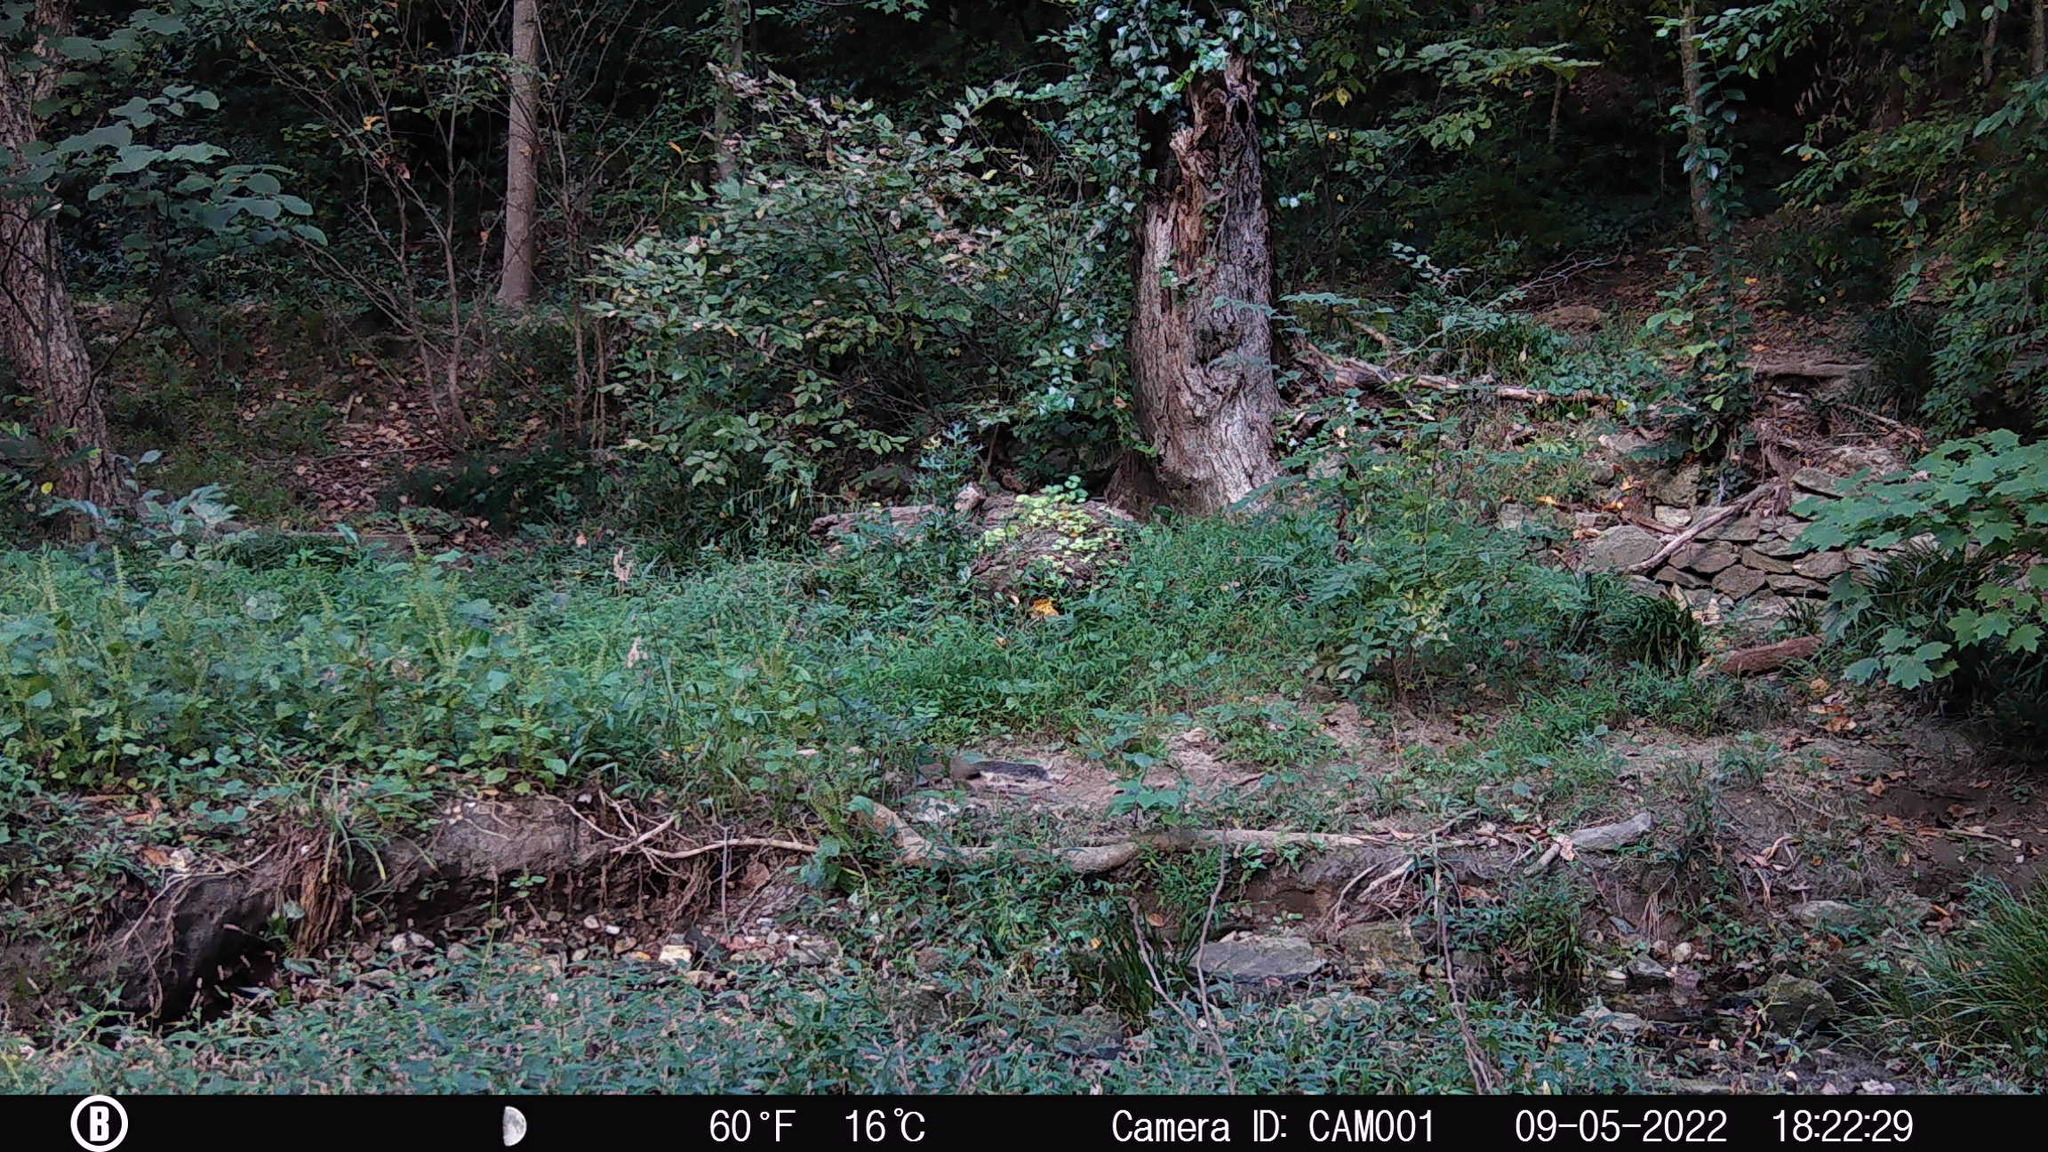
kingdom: Animalia
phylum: Chordata
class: Mammalia
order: Rodentia
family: Sciuridae
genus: Sciurus
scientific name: Sciurus carolinensis
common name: Eastern gray squirrel
